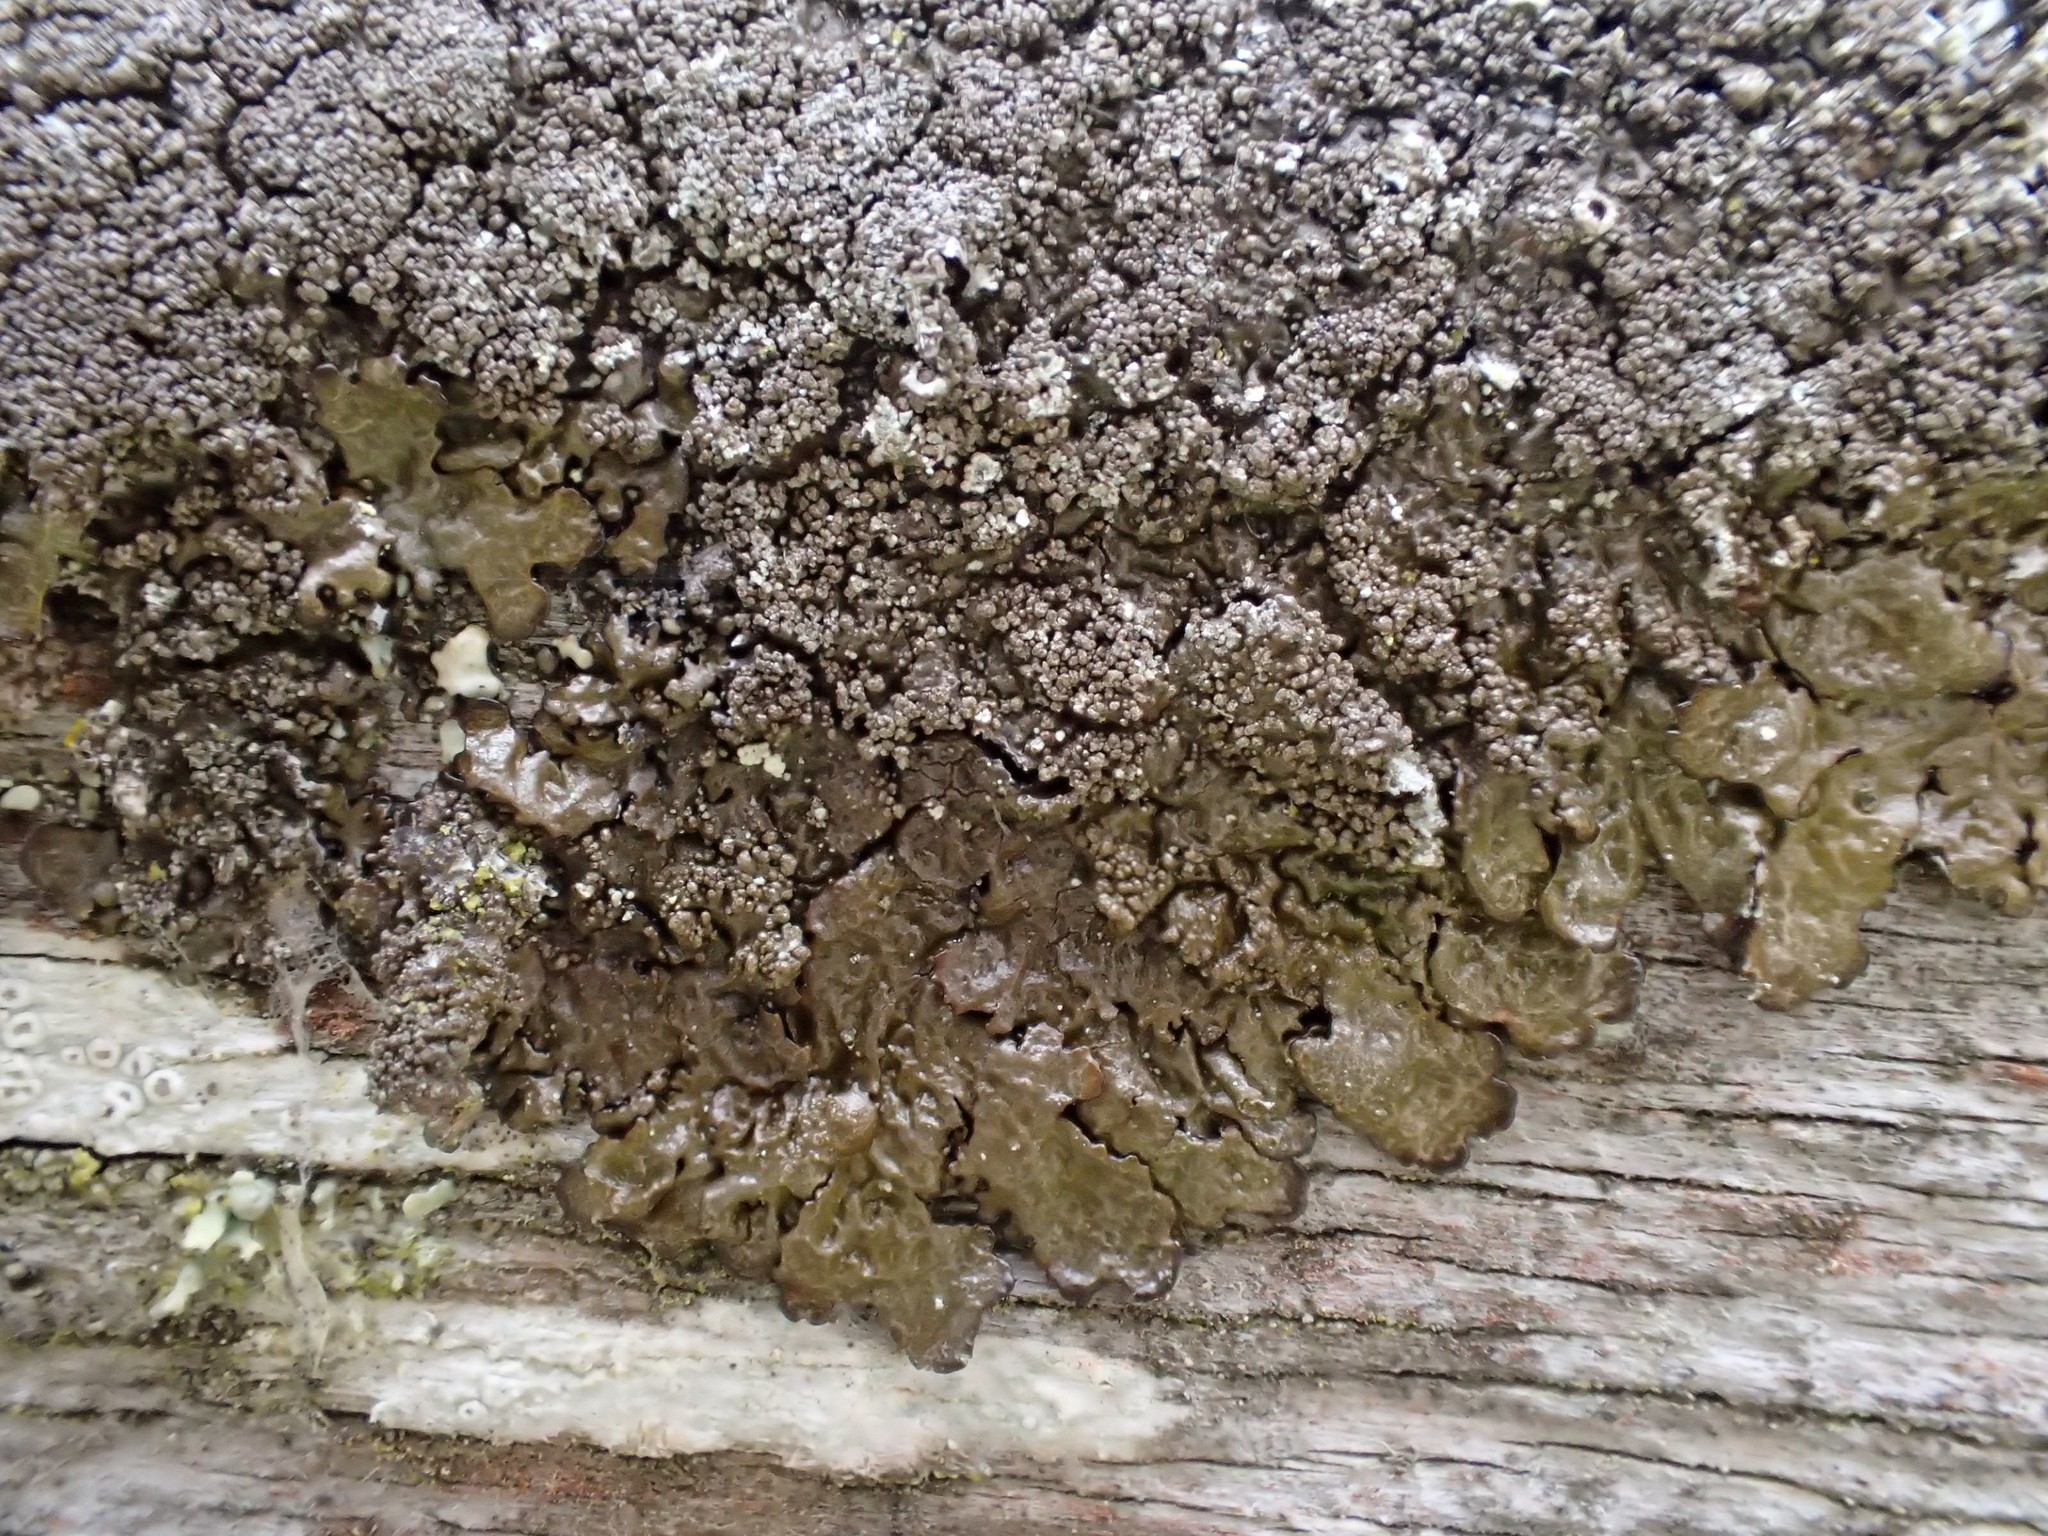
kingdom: Fungi
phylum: Ascomycota
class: Lecanoromycetes
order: Lecanorales
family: Parmeliaceae
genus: Xanthoparmelia
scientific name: Xanthoparmelia verisidiosa
